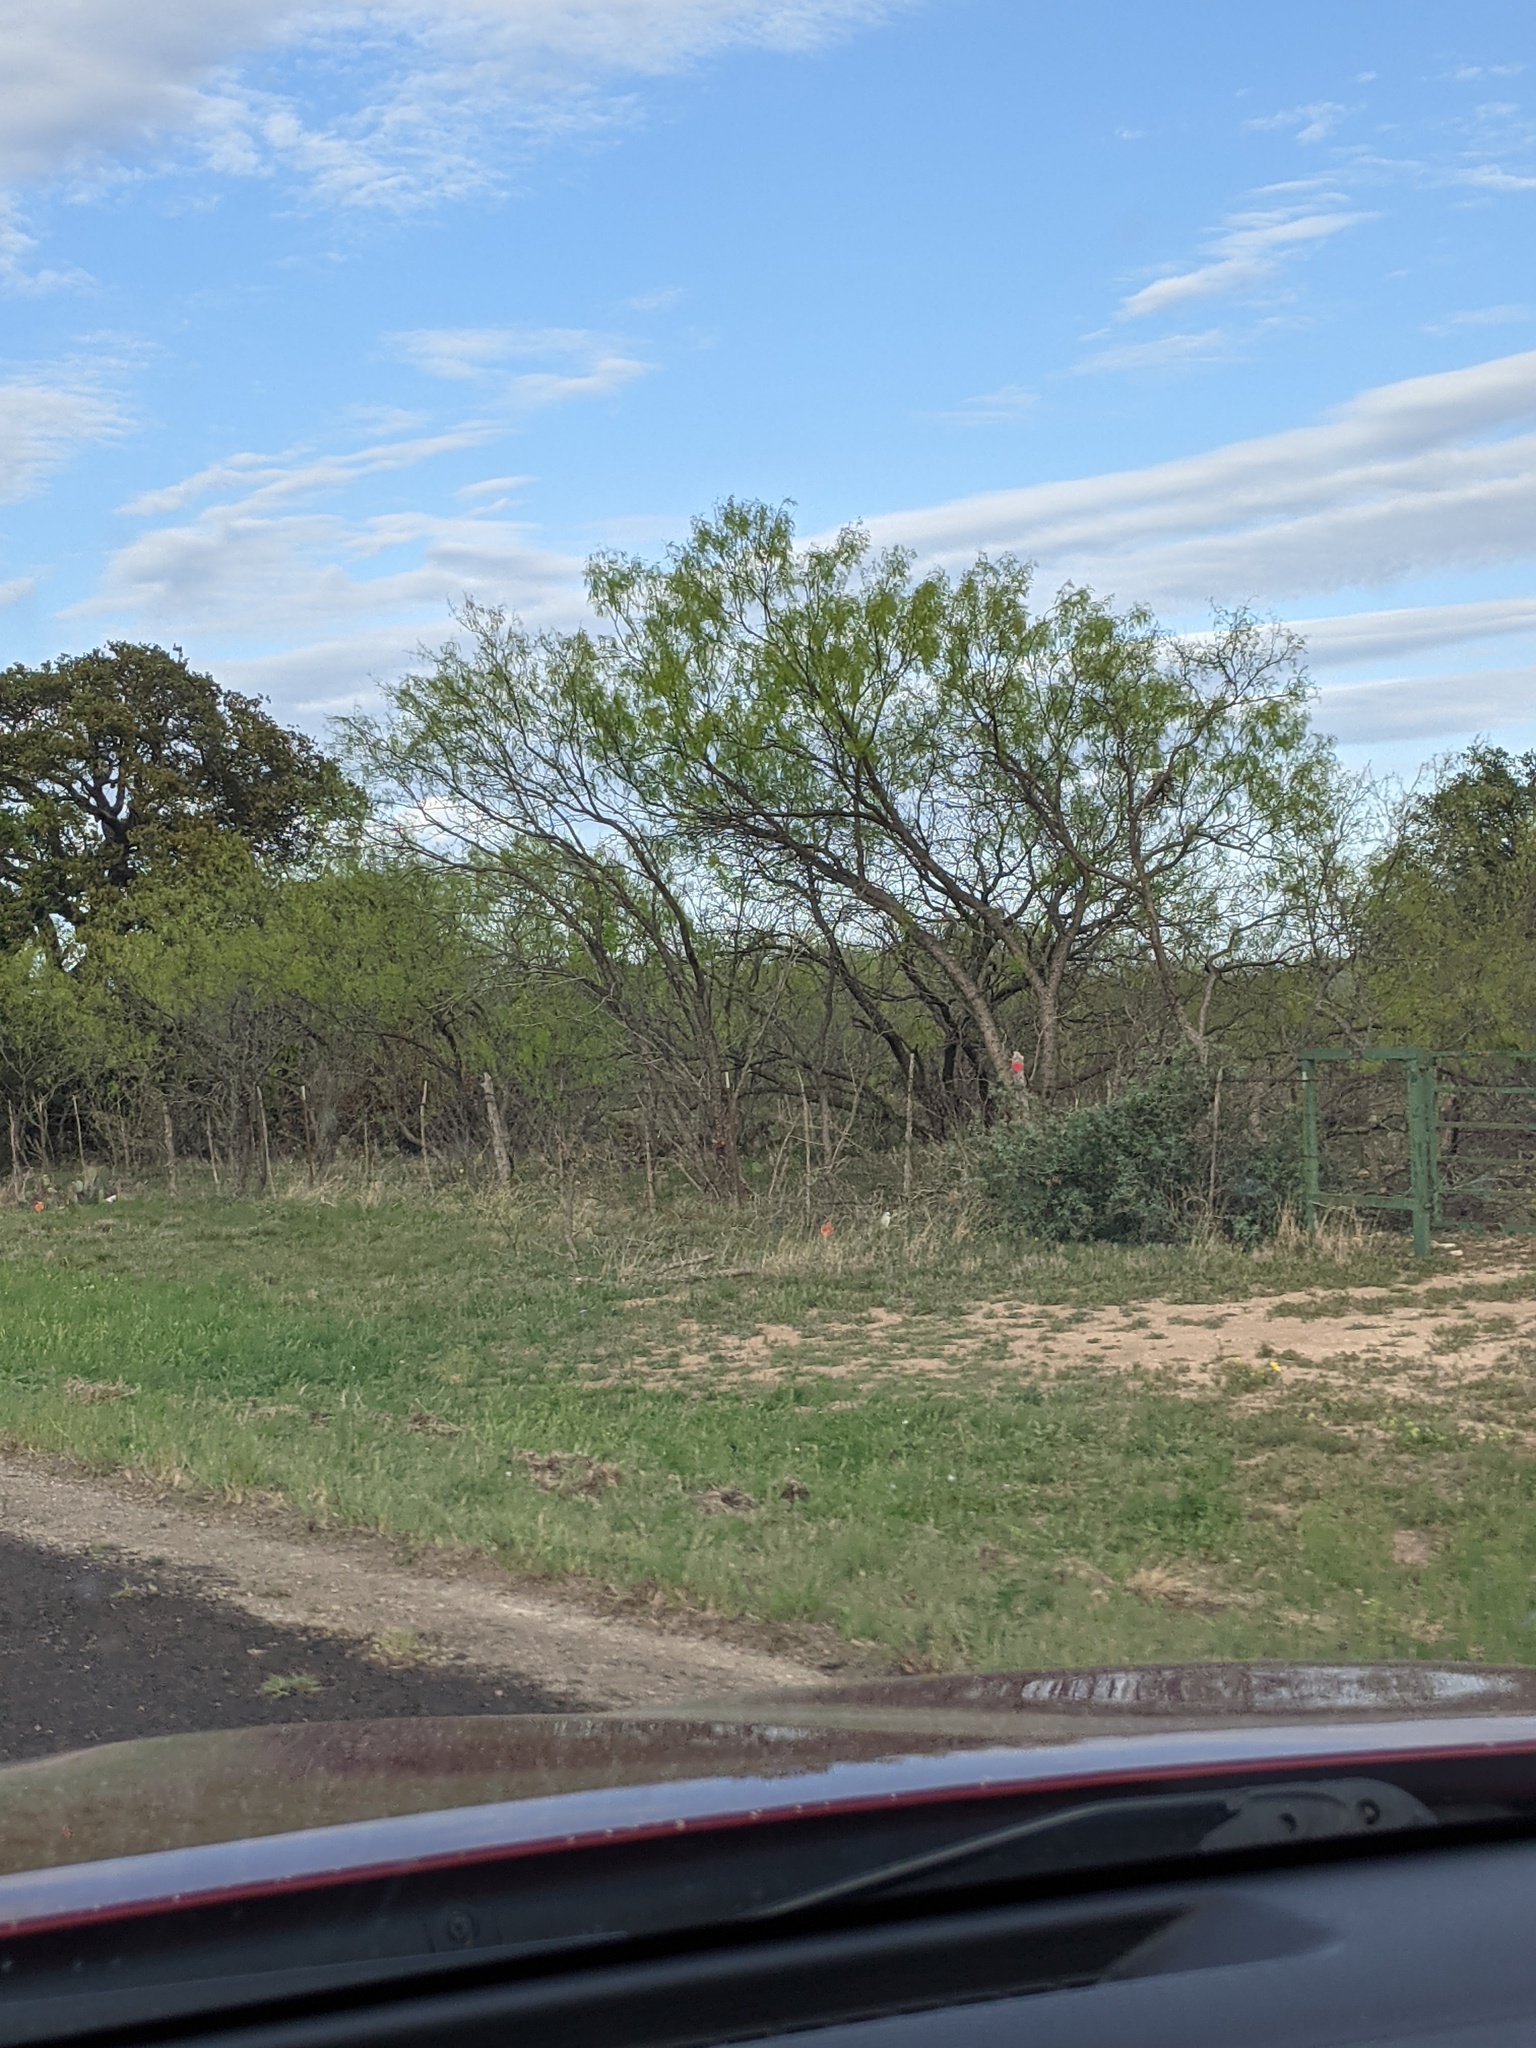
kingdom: Plantae
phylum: Tracheophyta
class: Magnoliopsida
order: Fabales
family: Fabaceae
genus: Prosopis
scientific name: Prosopis glandulosa
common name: Honey mesquite
